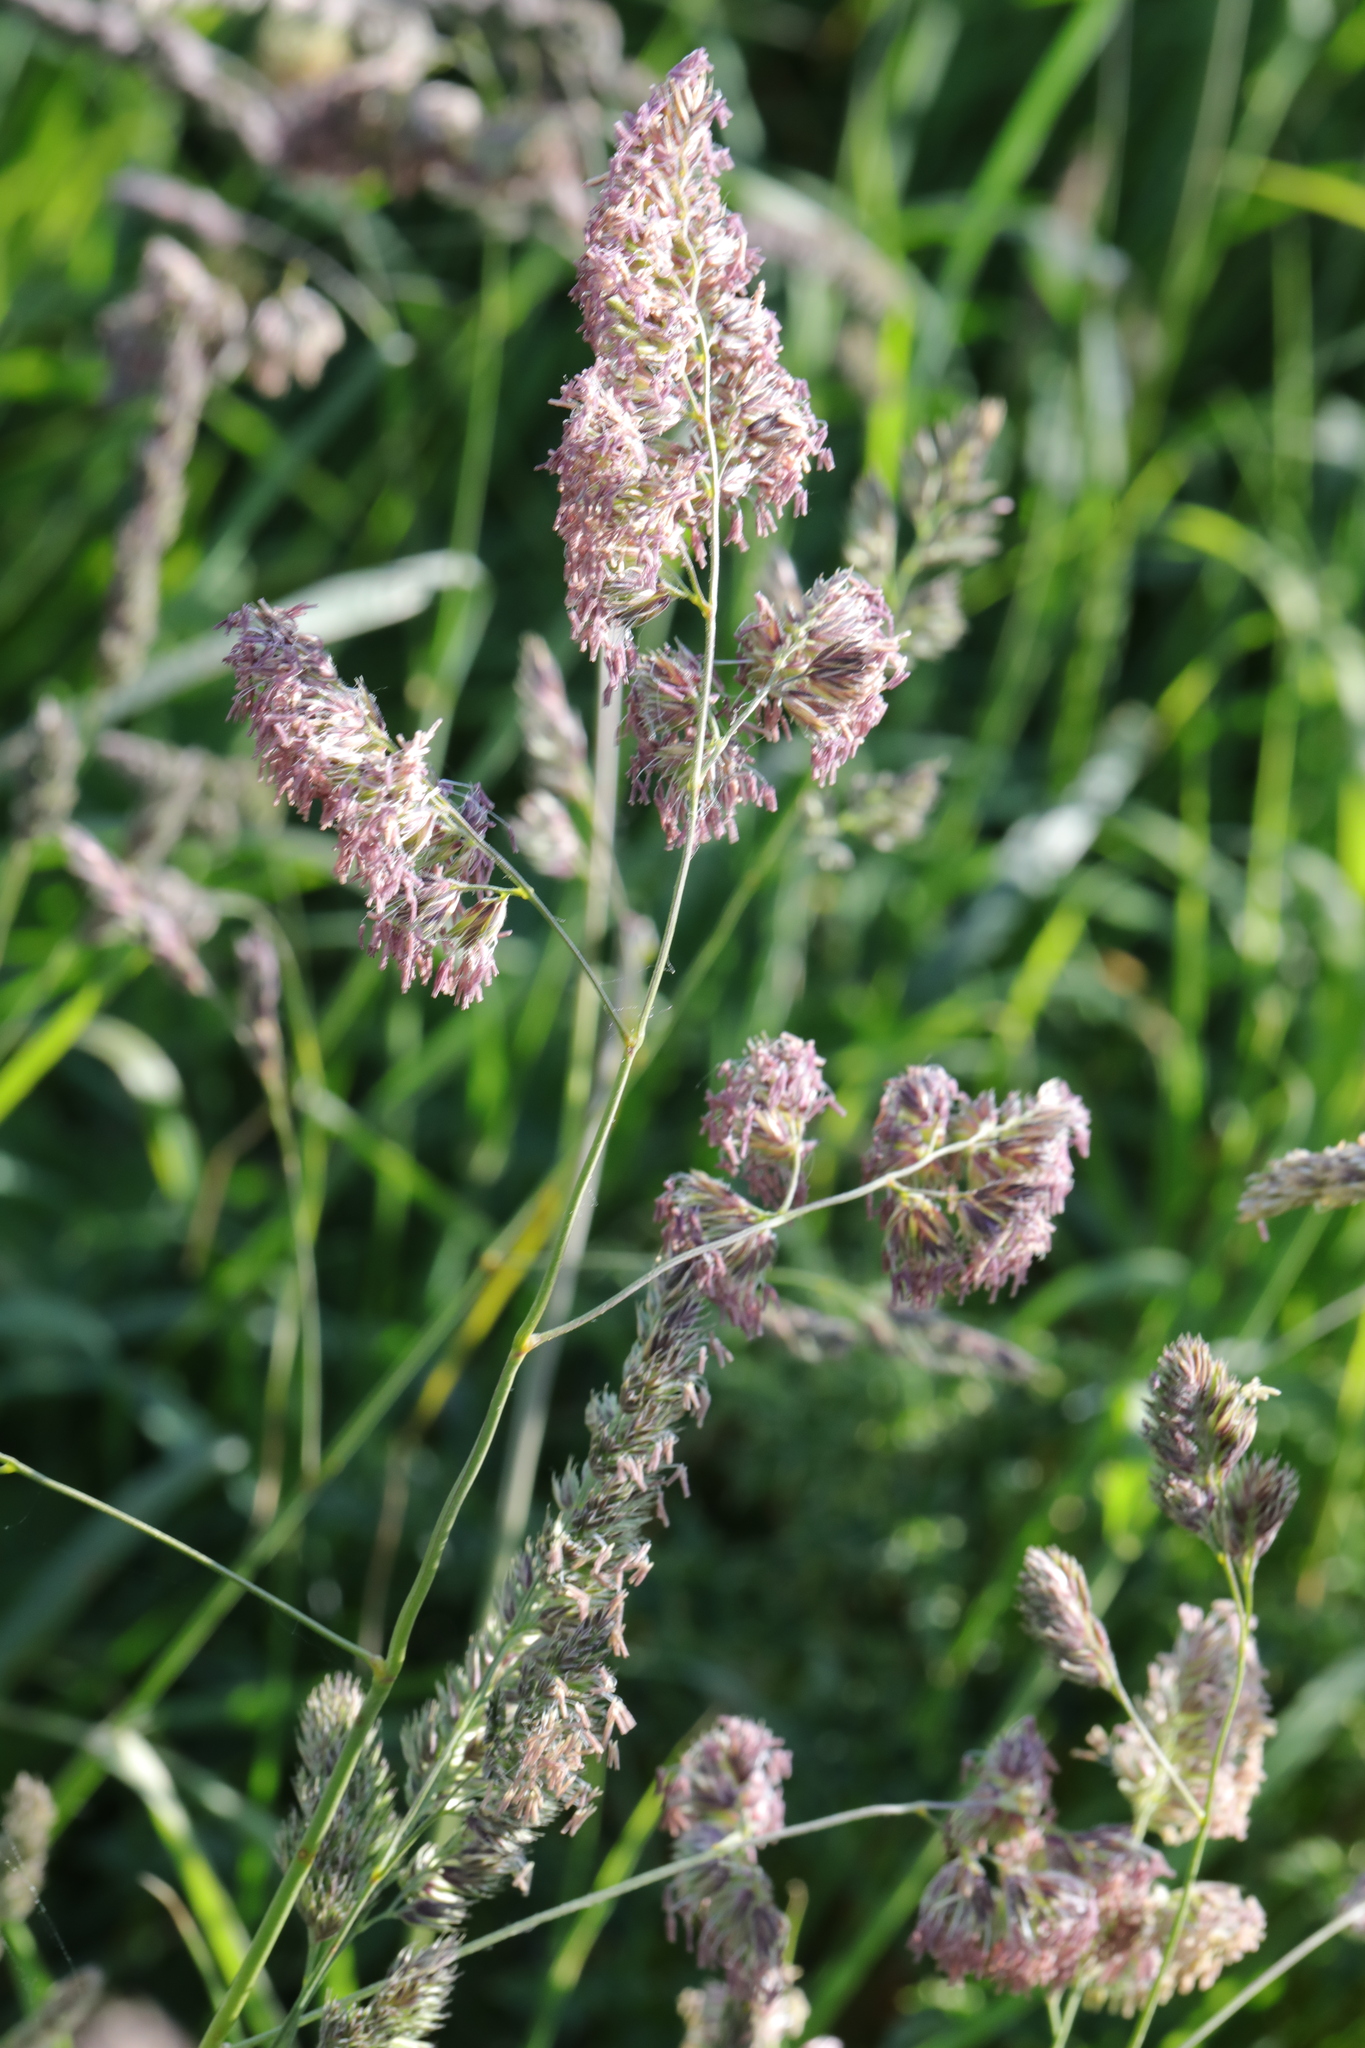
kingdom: Plantae
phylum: Tracheophyta
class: Liliopsida
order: Poales
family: Poaceae
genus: Dactylis
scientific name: Dactylis glomerata
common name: Orchardgrass
